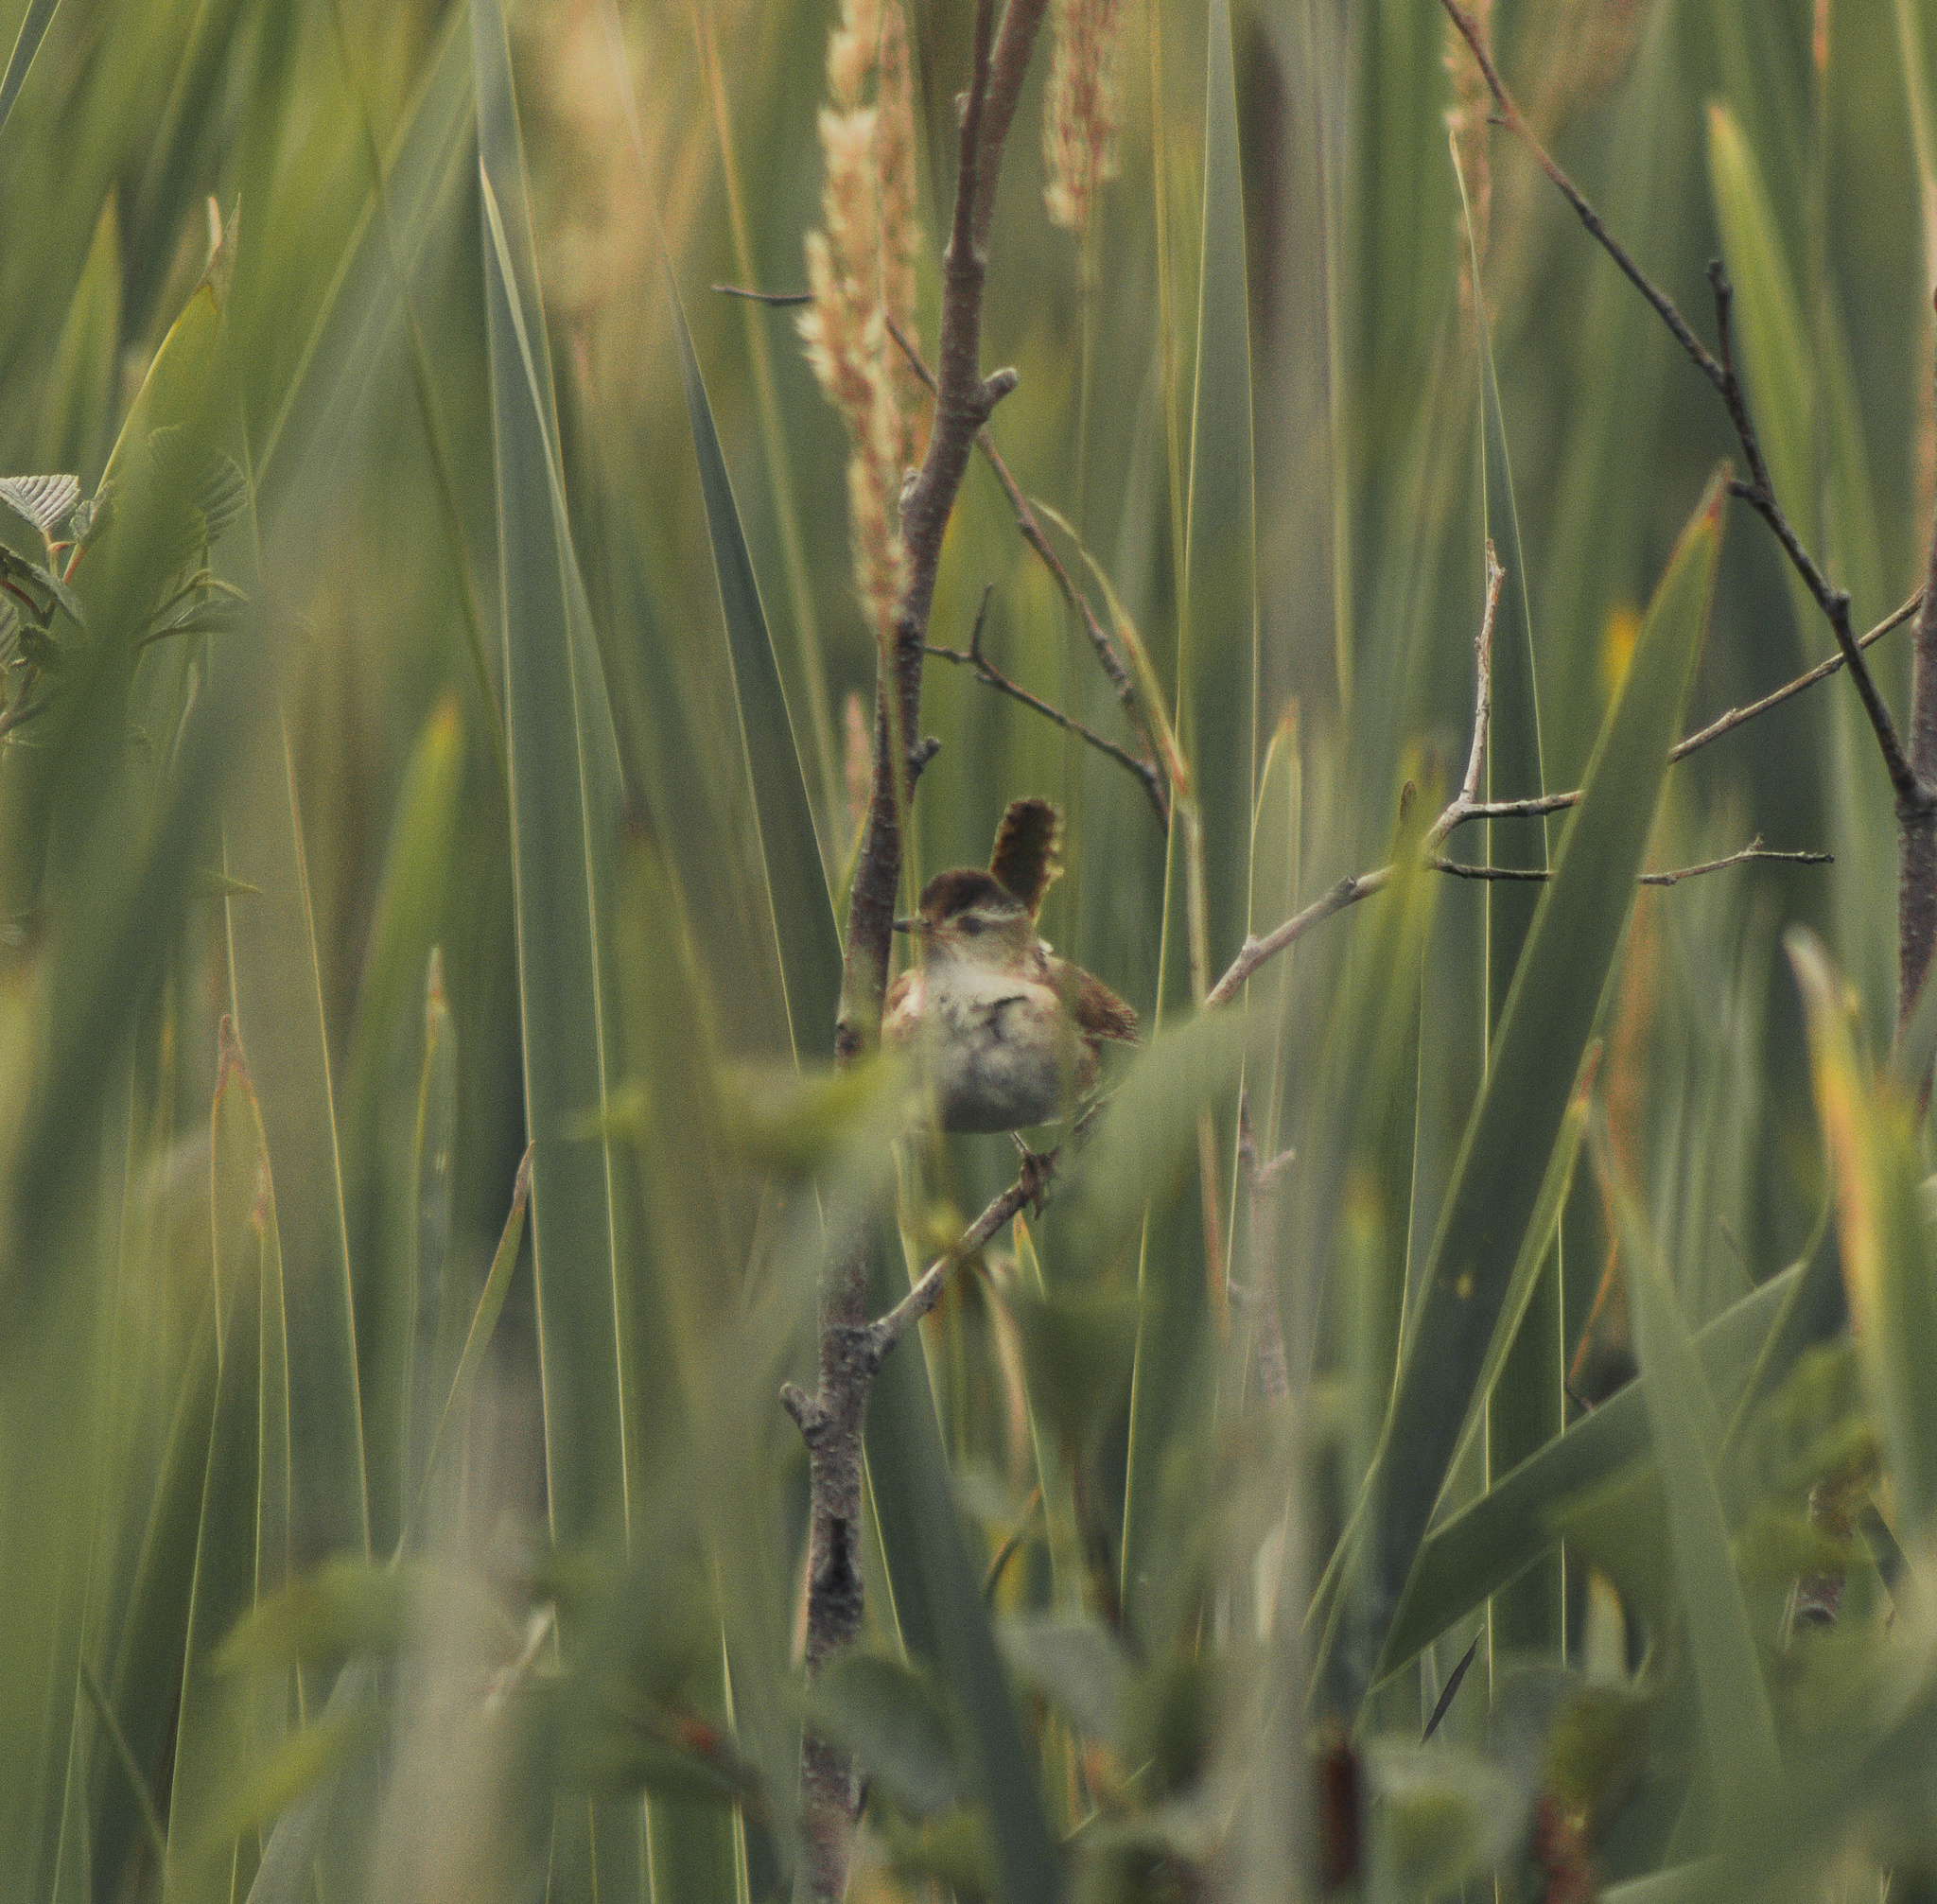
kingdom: Animalia
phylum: Chordata
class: Aves
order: Passeriformes
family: Troglodytidae
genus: Cistothorus
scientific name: Cistothorus palustris
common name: Marsh wren
